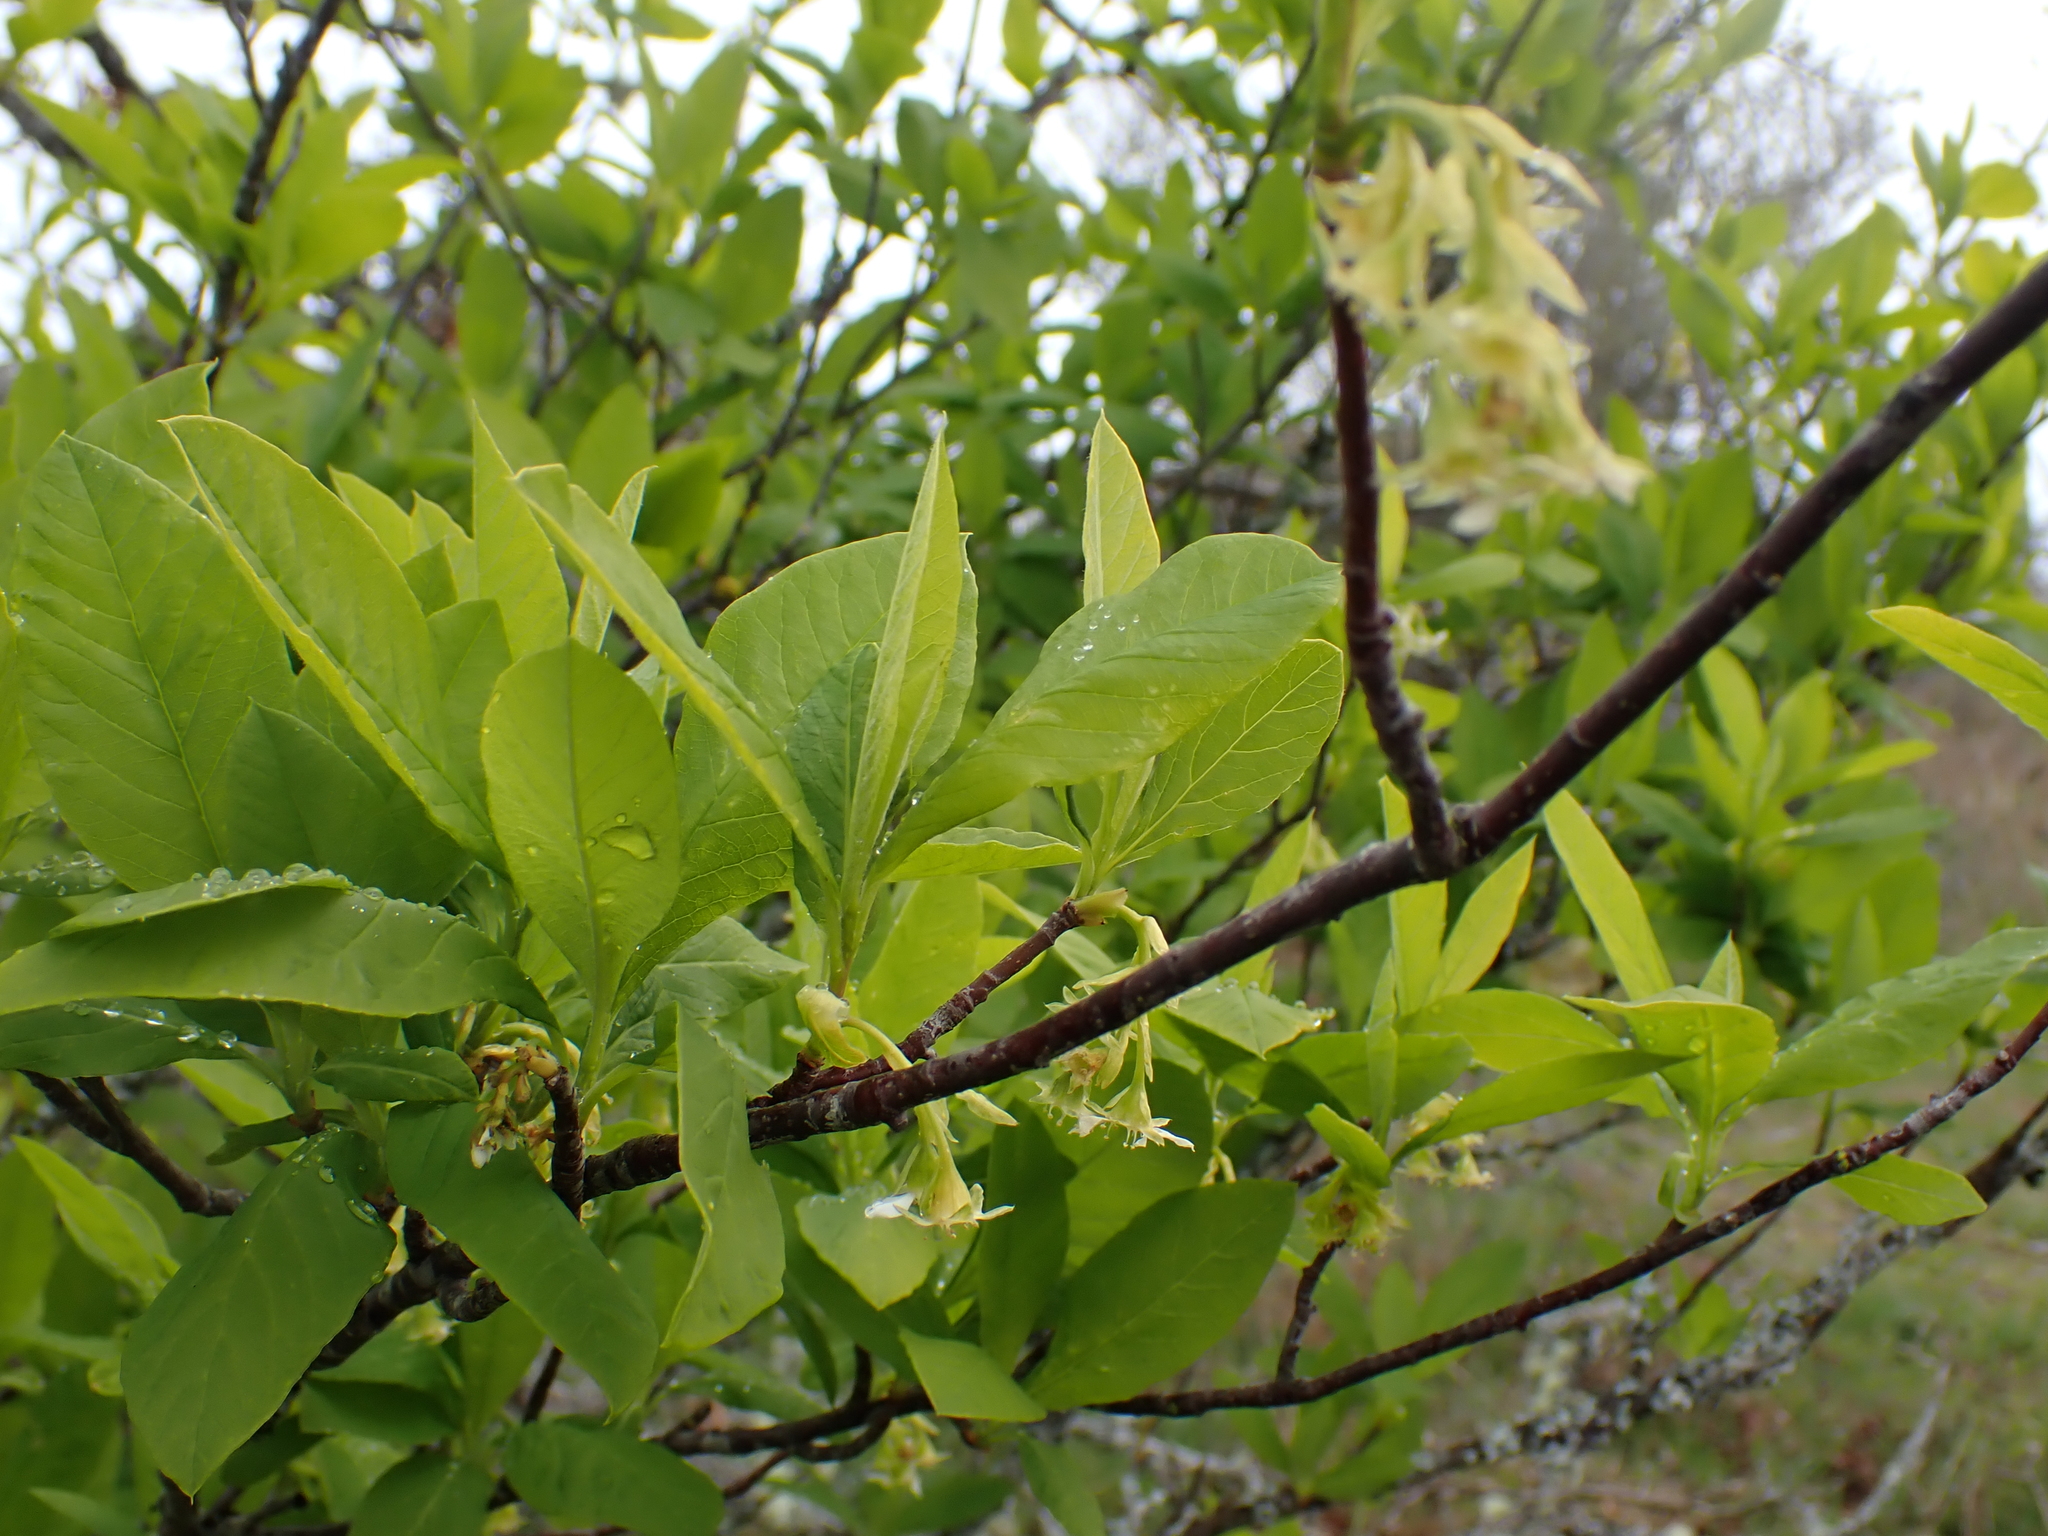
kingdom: Plantae
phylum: Tracheophyta
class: Magnoliopsida
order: Rosales
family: Rosaceae
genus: Oemleria
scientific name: Oemleria cerasiformis
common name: Osoberry
